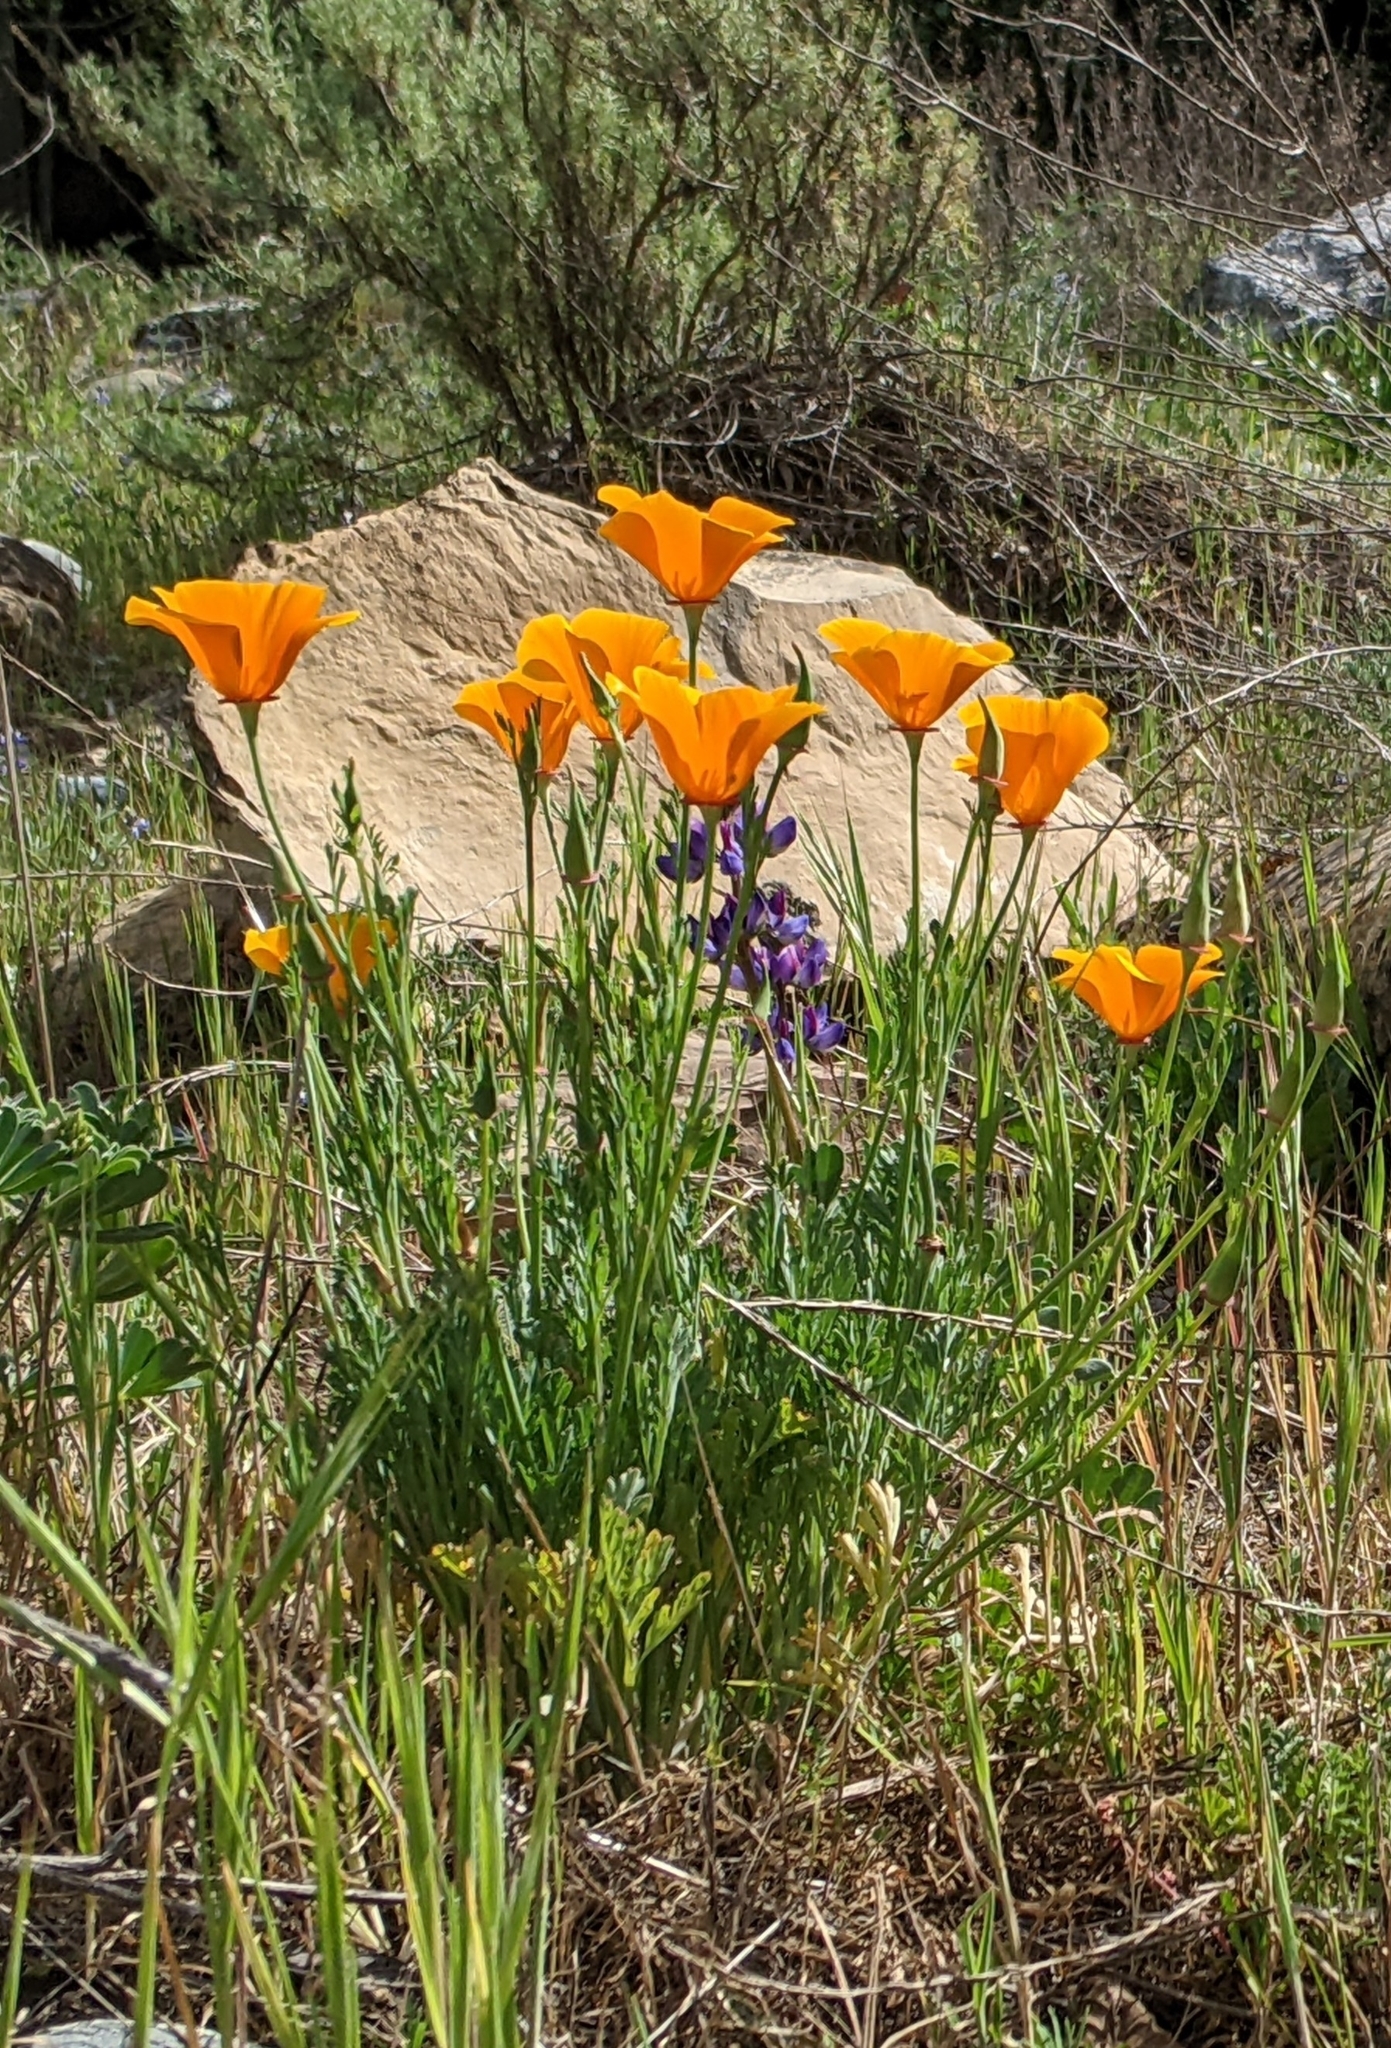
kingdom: Plantae
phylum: Tracheophyta
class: Magnoliopsida
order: Ranunculales
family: Papaveraceae
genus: Eschscholzia
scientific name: Eschscholzia californica
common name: California poppy
